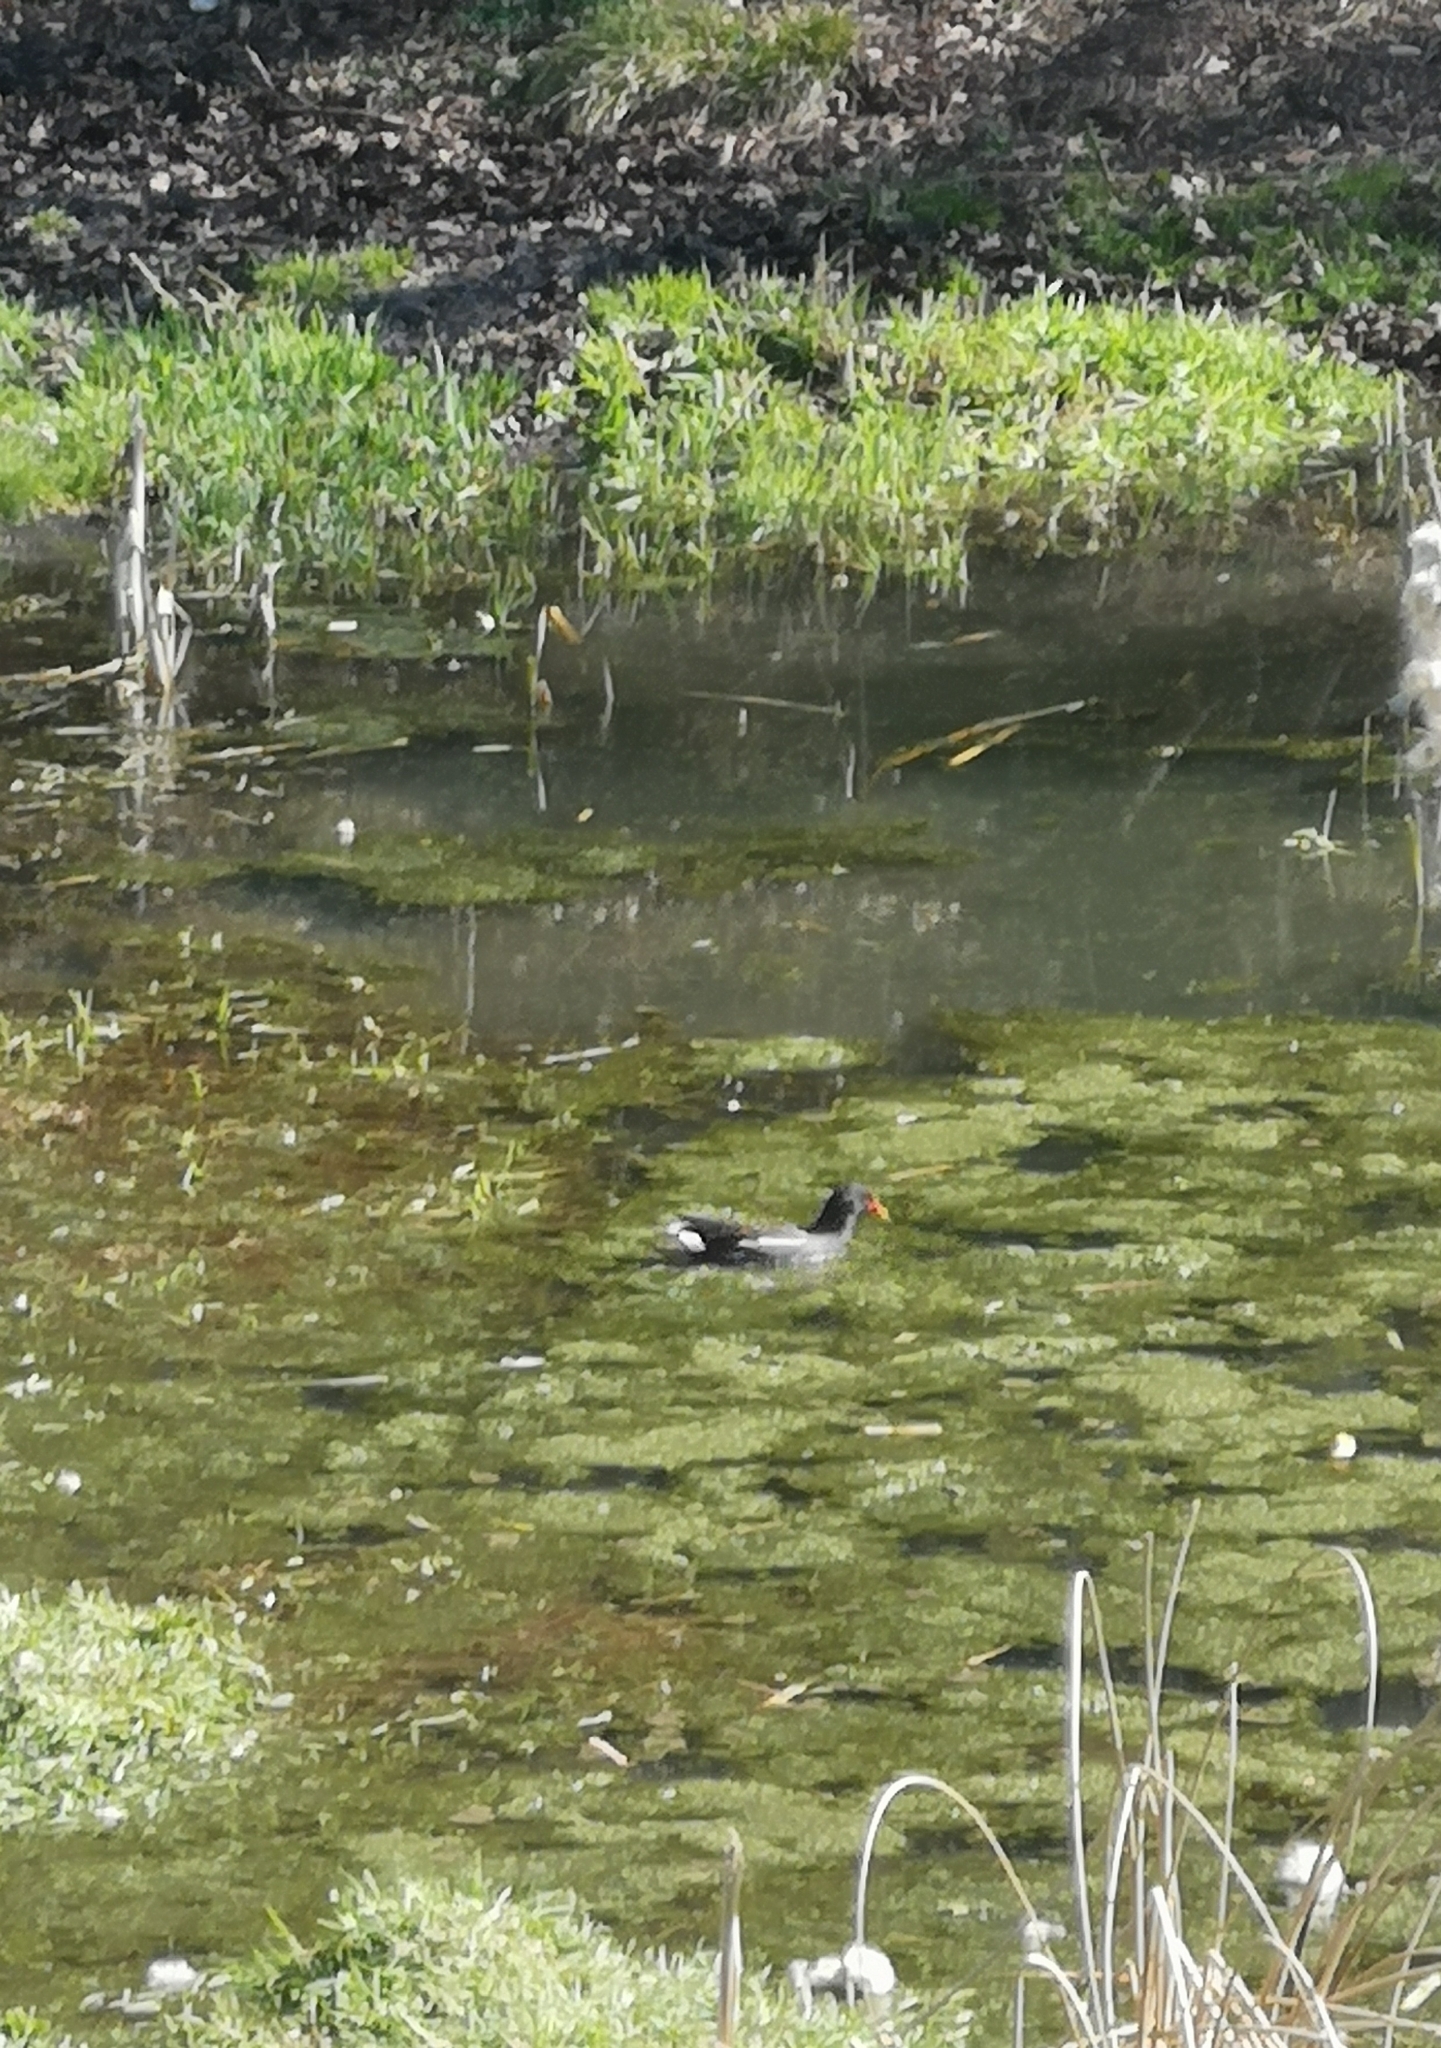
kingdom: Animalia
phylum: Chordata
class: Aves
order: Gruiformes
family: Rallidae
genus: Gallinula
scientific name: Gallinula chloropus
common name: Common moorhen
